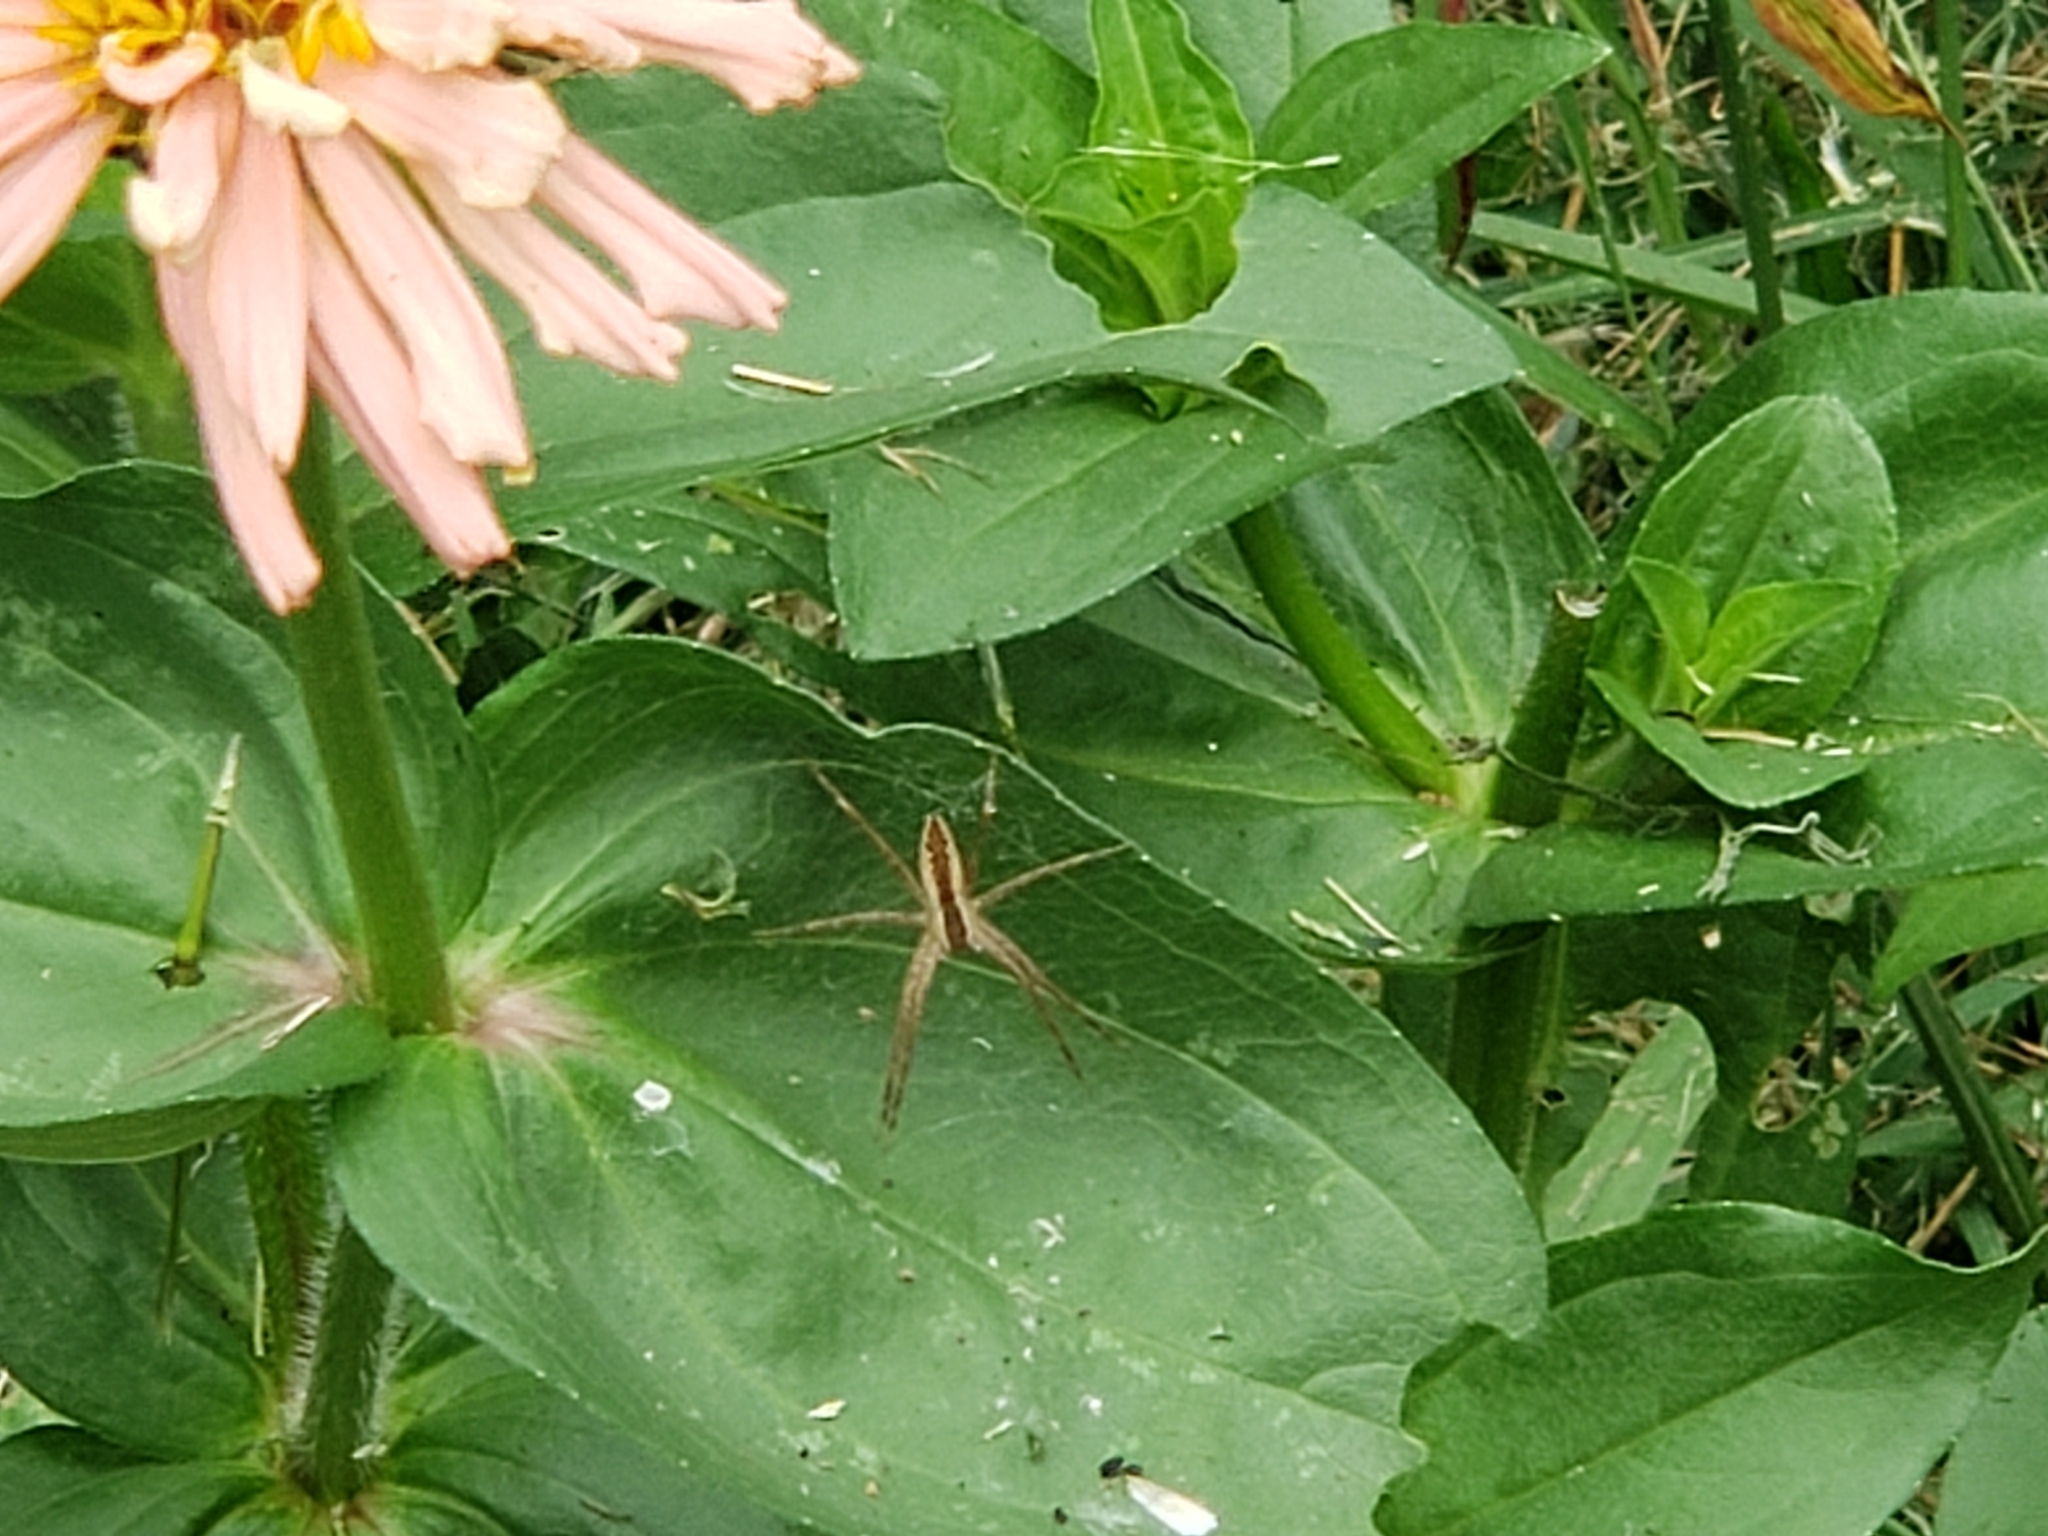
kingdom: Animalia
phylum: Arthropoda
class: Arachnida
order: Araneae
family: Pisauridae
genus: Pisaurina
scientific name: Pisaurina mira
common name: American nursery web spider
